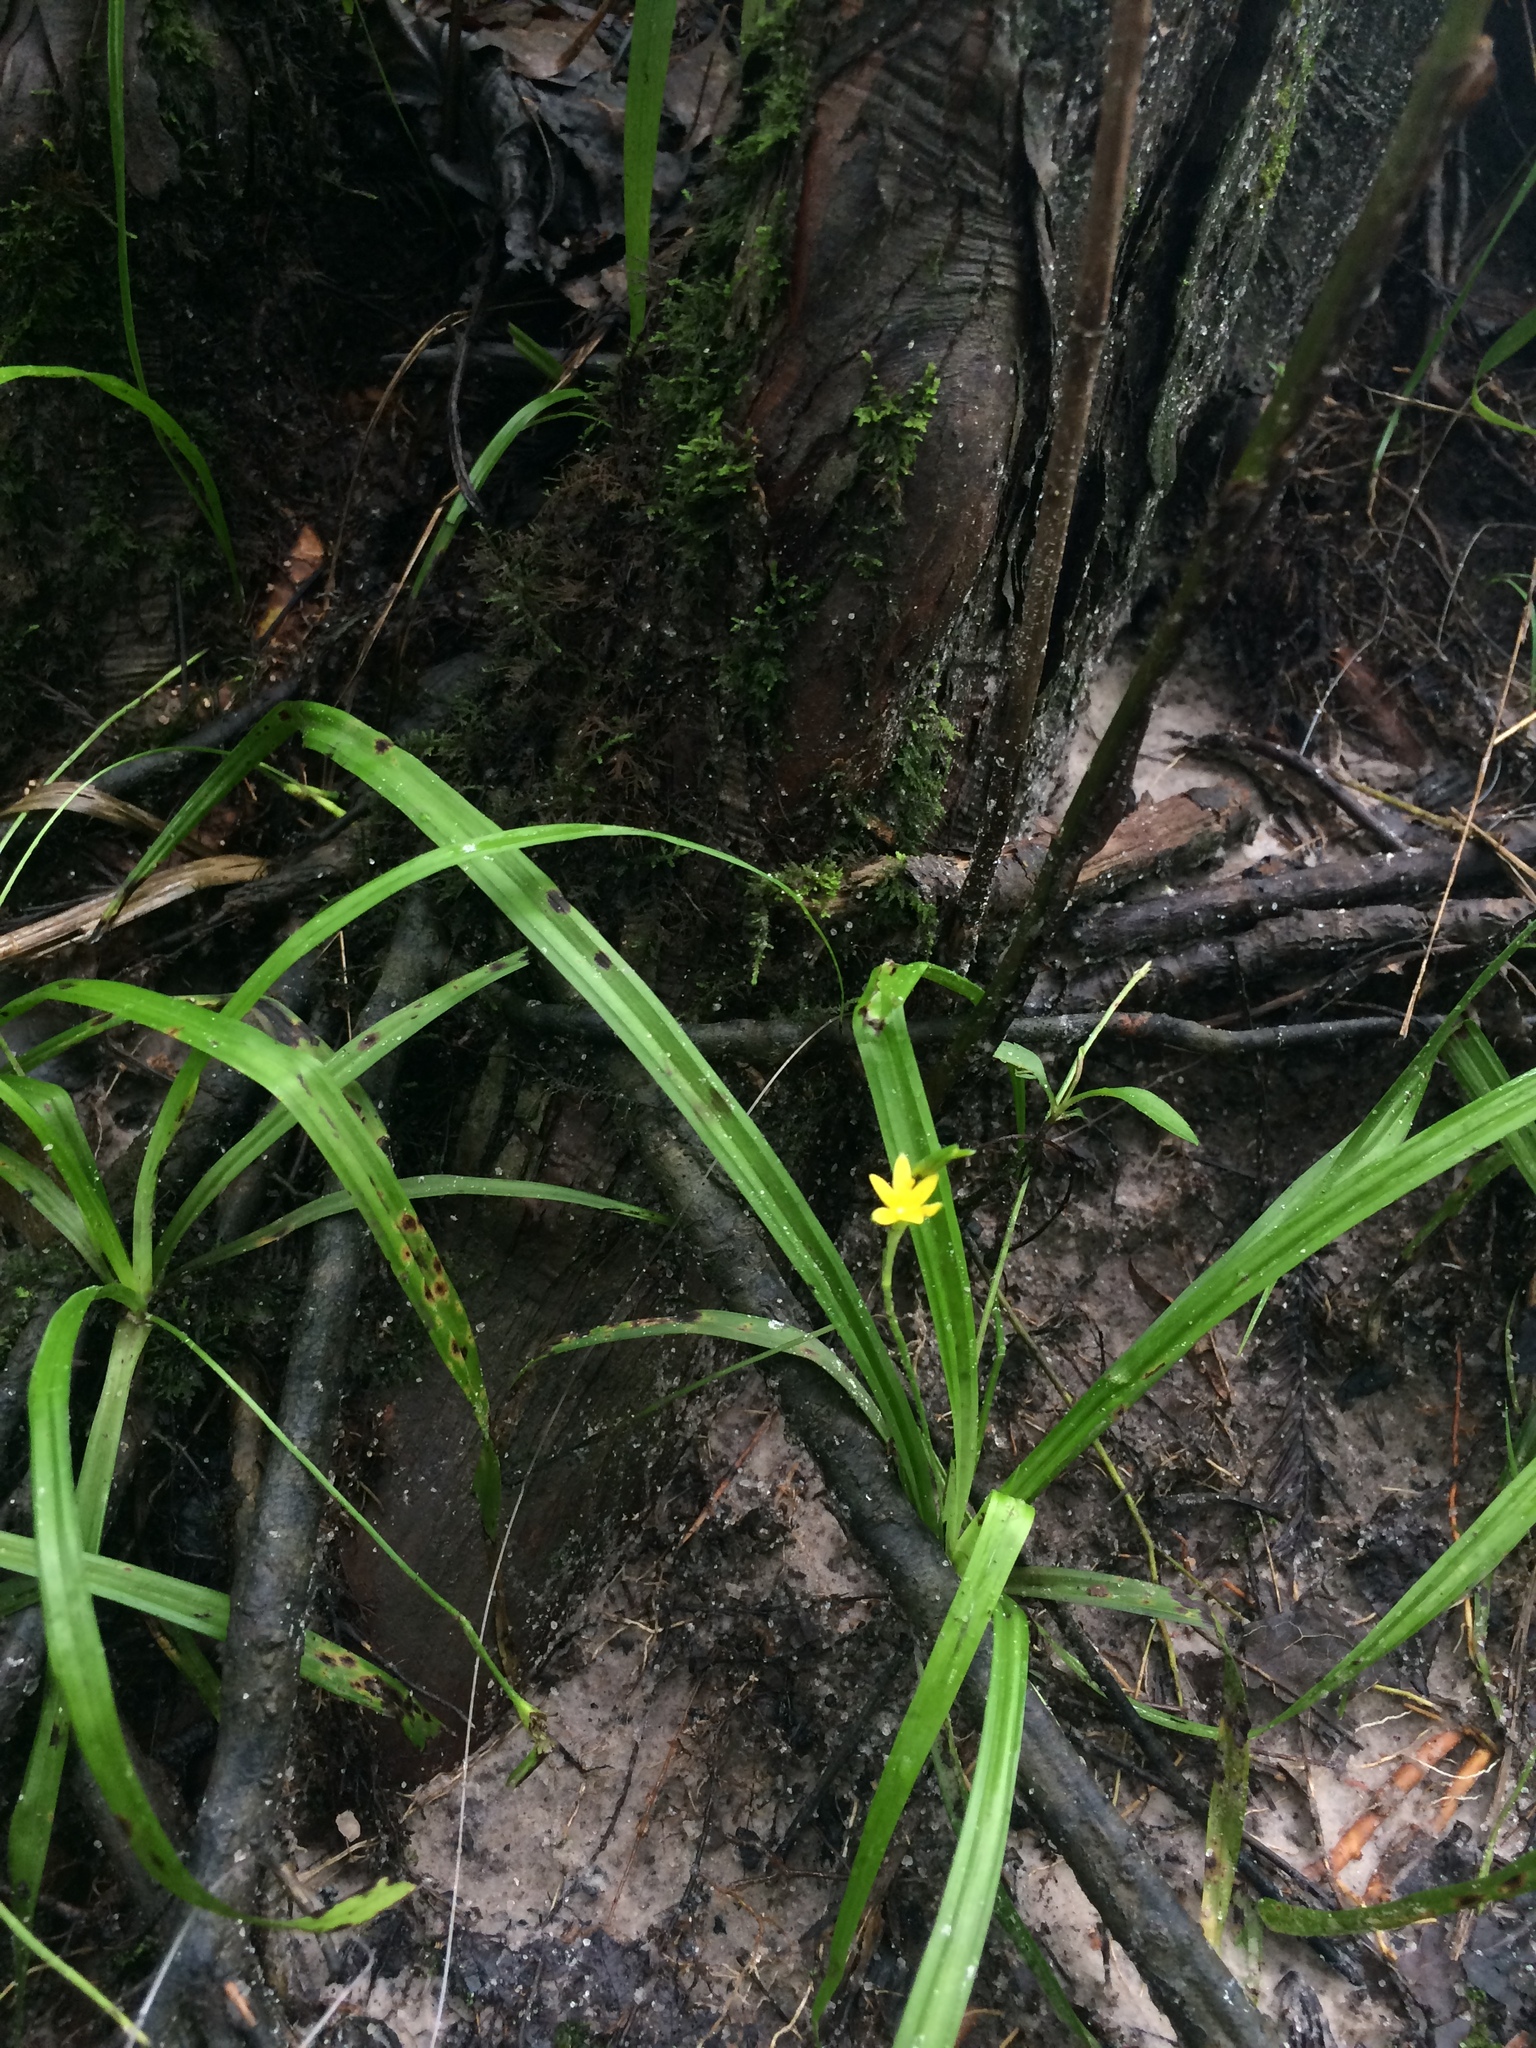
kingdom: Plantae
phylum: Tracheophyta
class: Liliopsida
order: Asparagales
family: Hypoxidaceae
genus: Hypoxis
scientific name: Hypoxis curtissii
